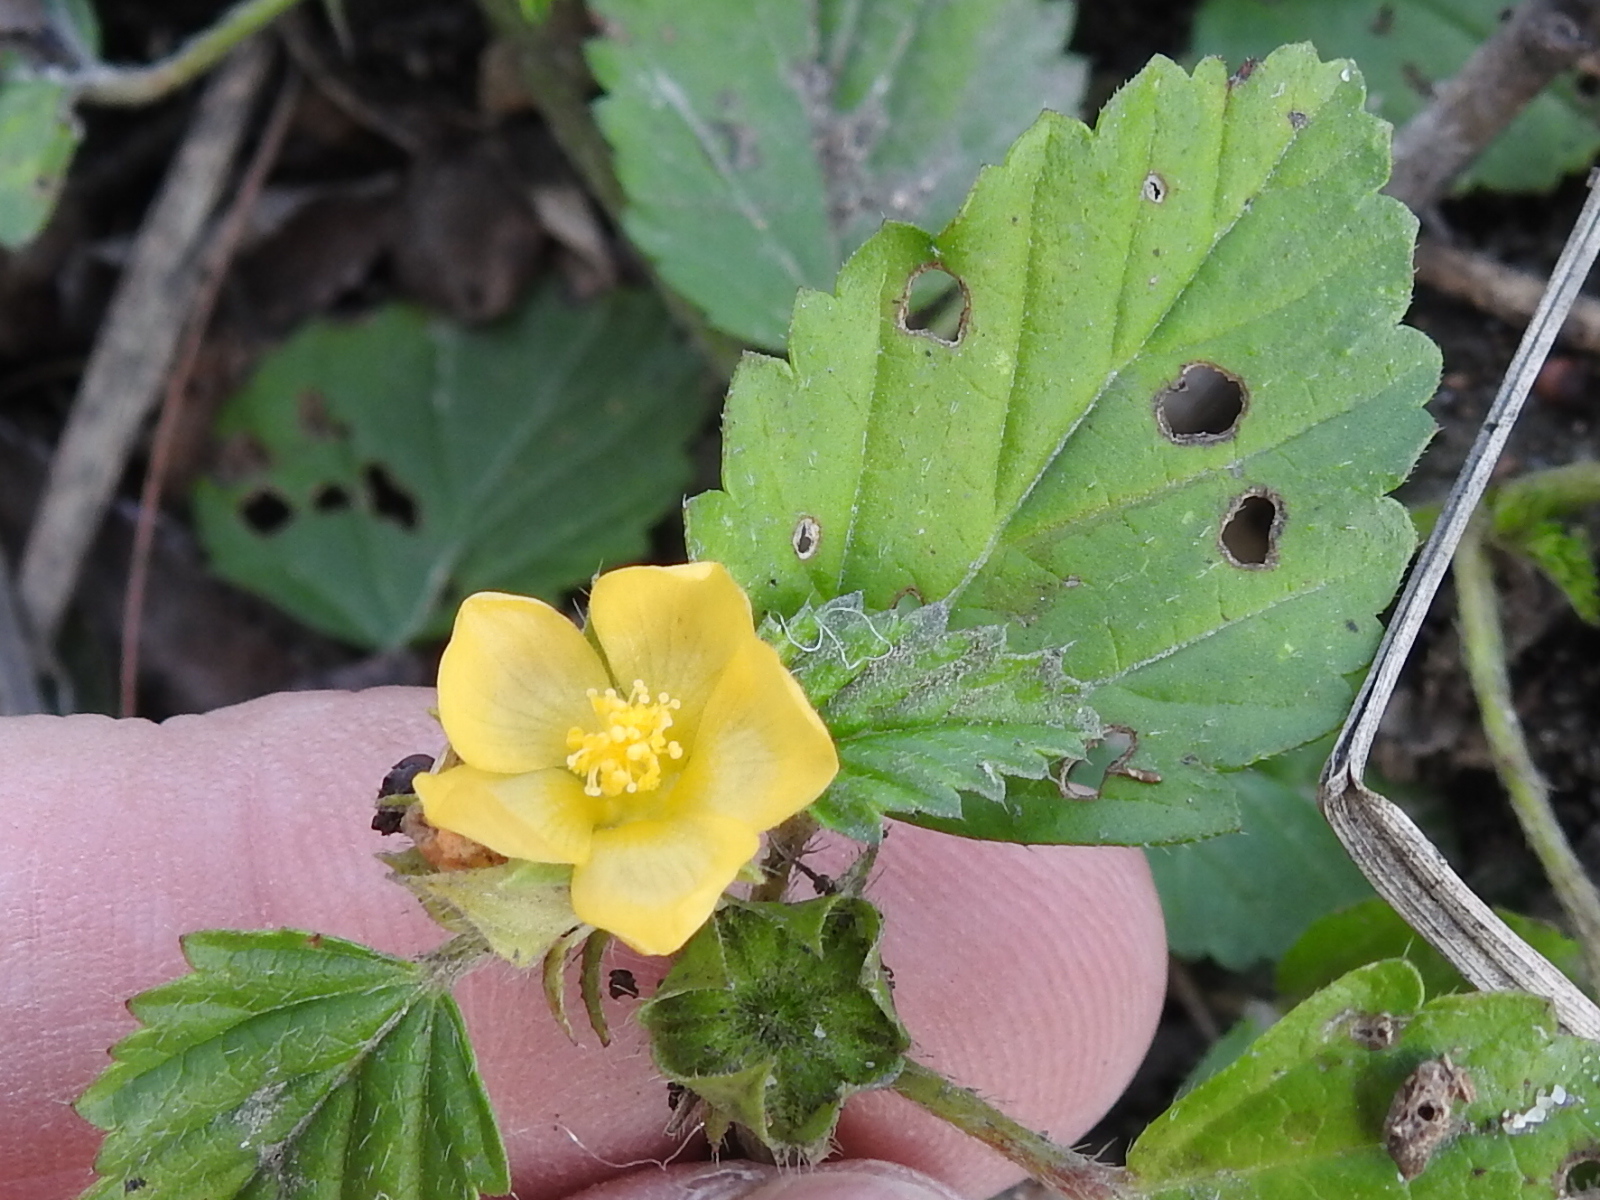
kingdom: Plantae
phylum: Tracheophyta
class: Magnoliopsida
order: Malvales
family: Malvaceae
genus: Malvastrum
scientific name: Malvastrum coromandelianum
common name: Threelobe false mallow
